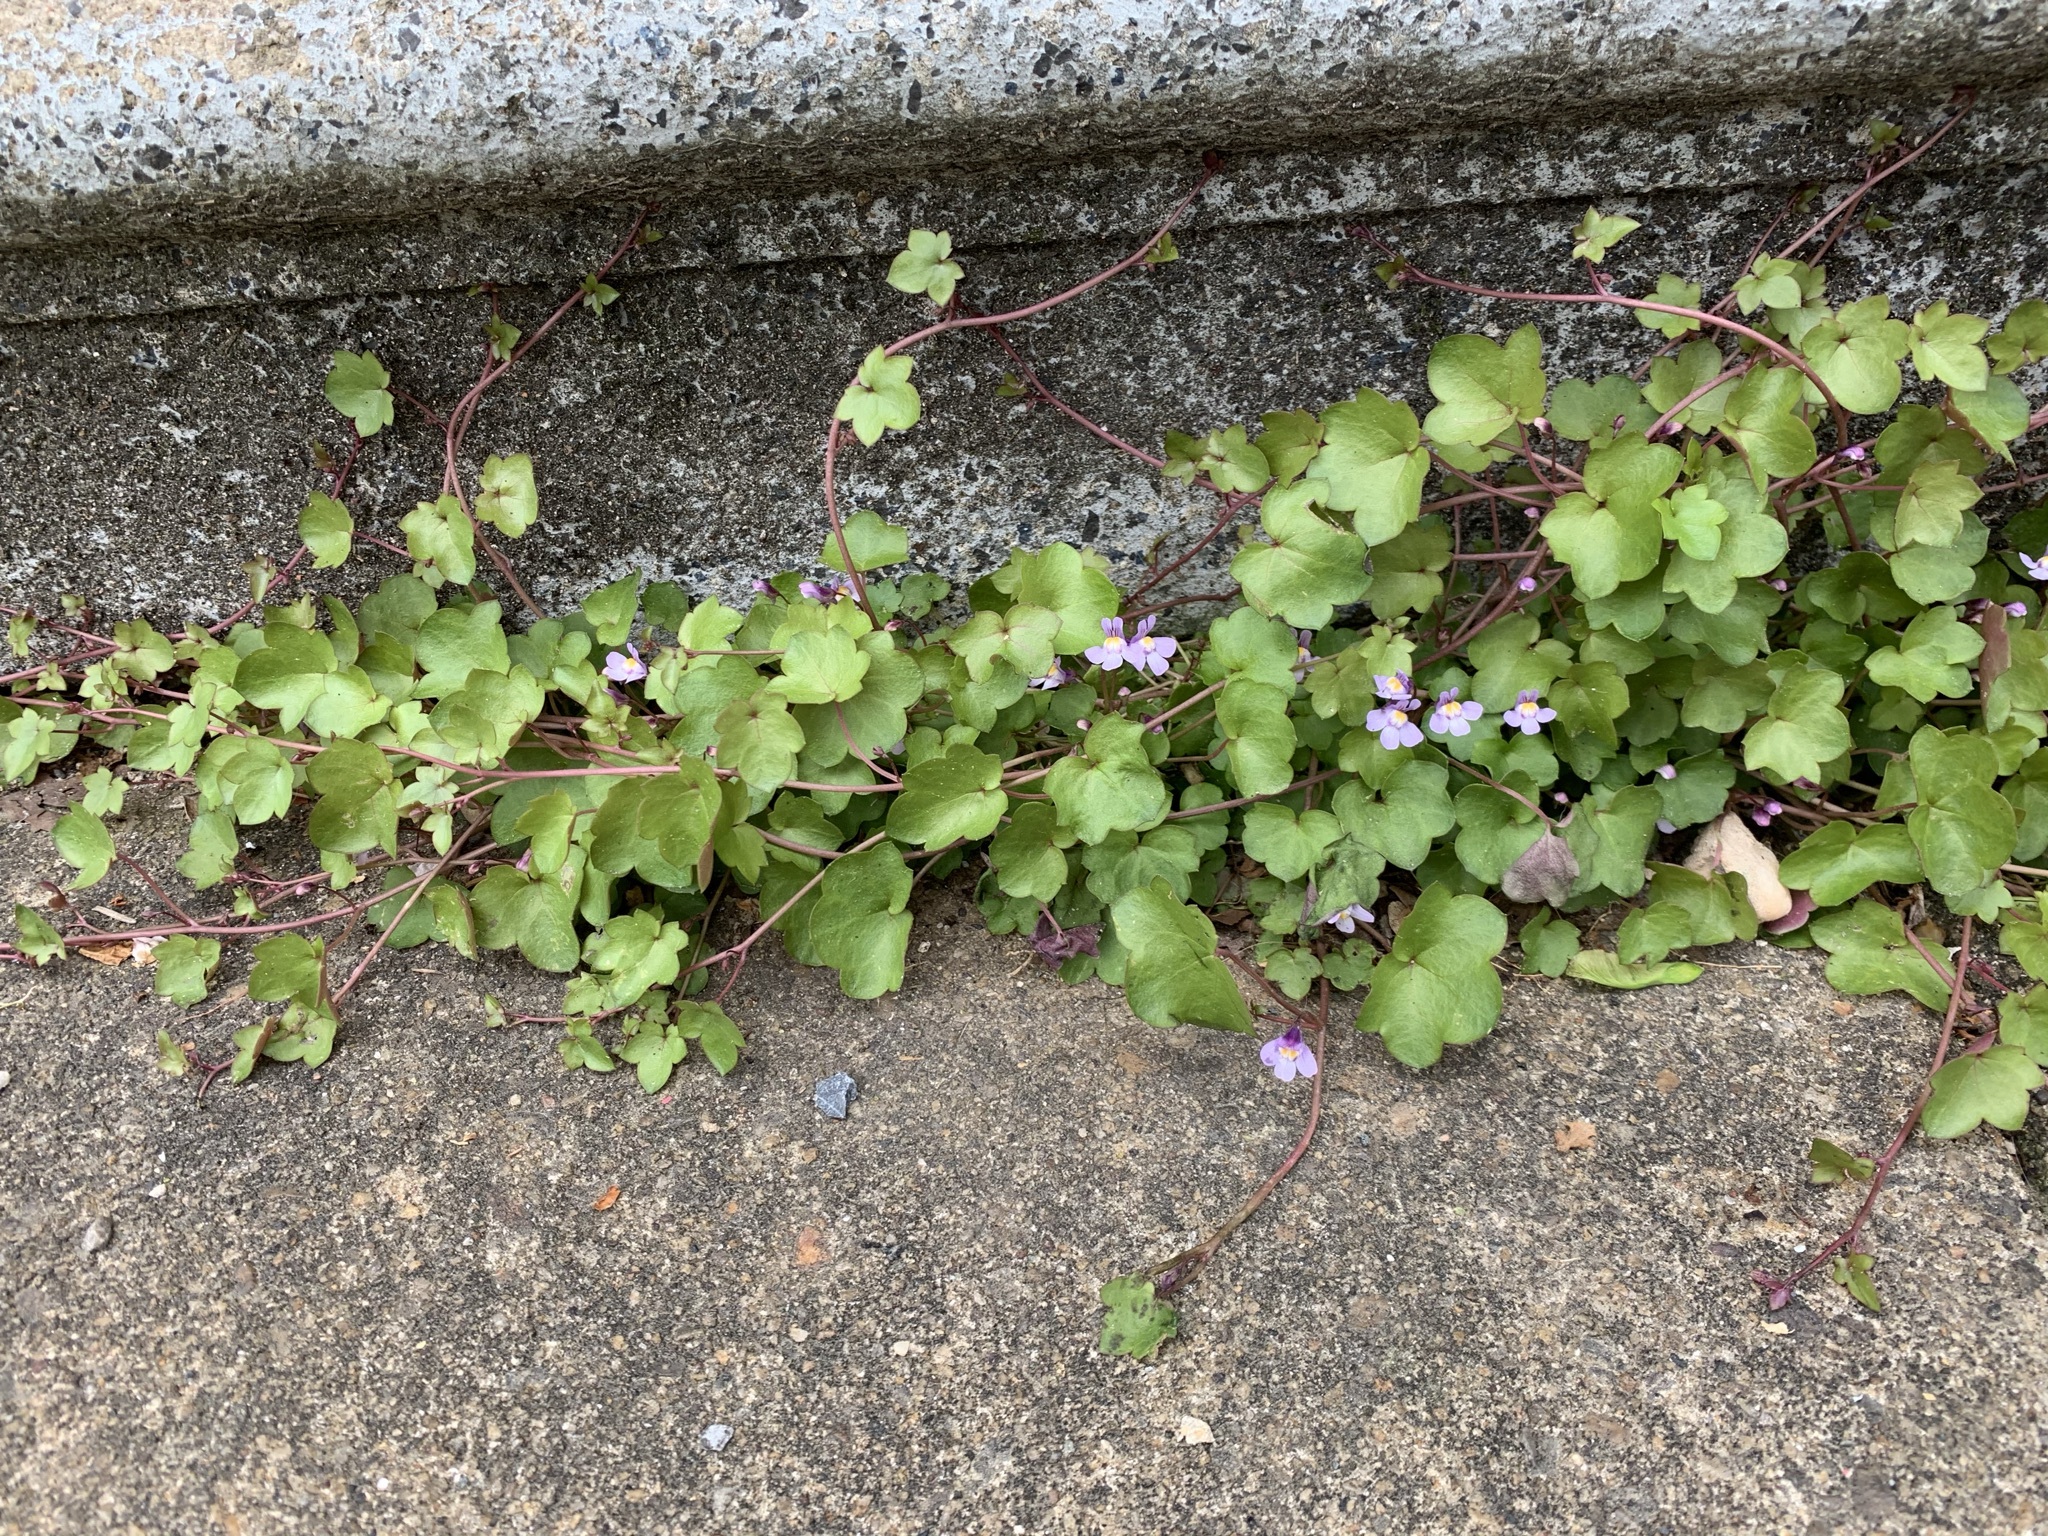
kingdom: Plantae
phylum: Tracheophyta
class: Magnoliopsida
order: Lamiales
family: Plantaginaceae
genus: Cymbalaria
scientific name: Cymbalaria muralis
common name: Ivy-leaved toadflax
